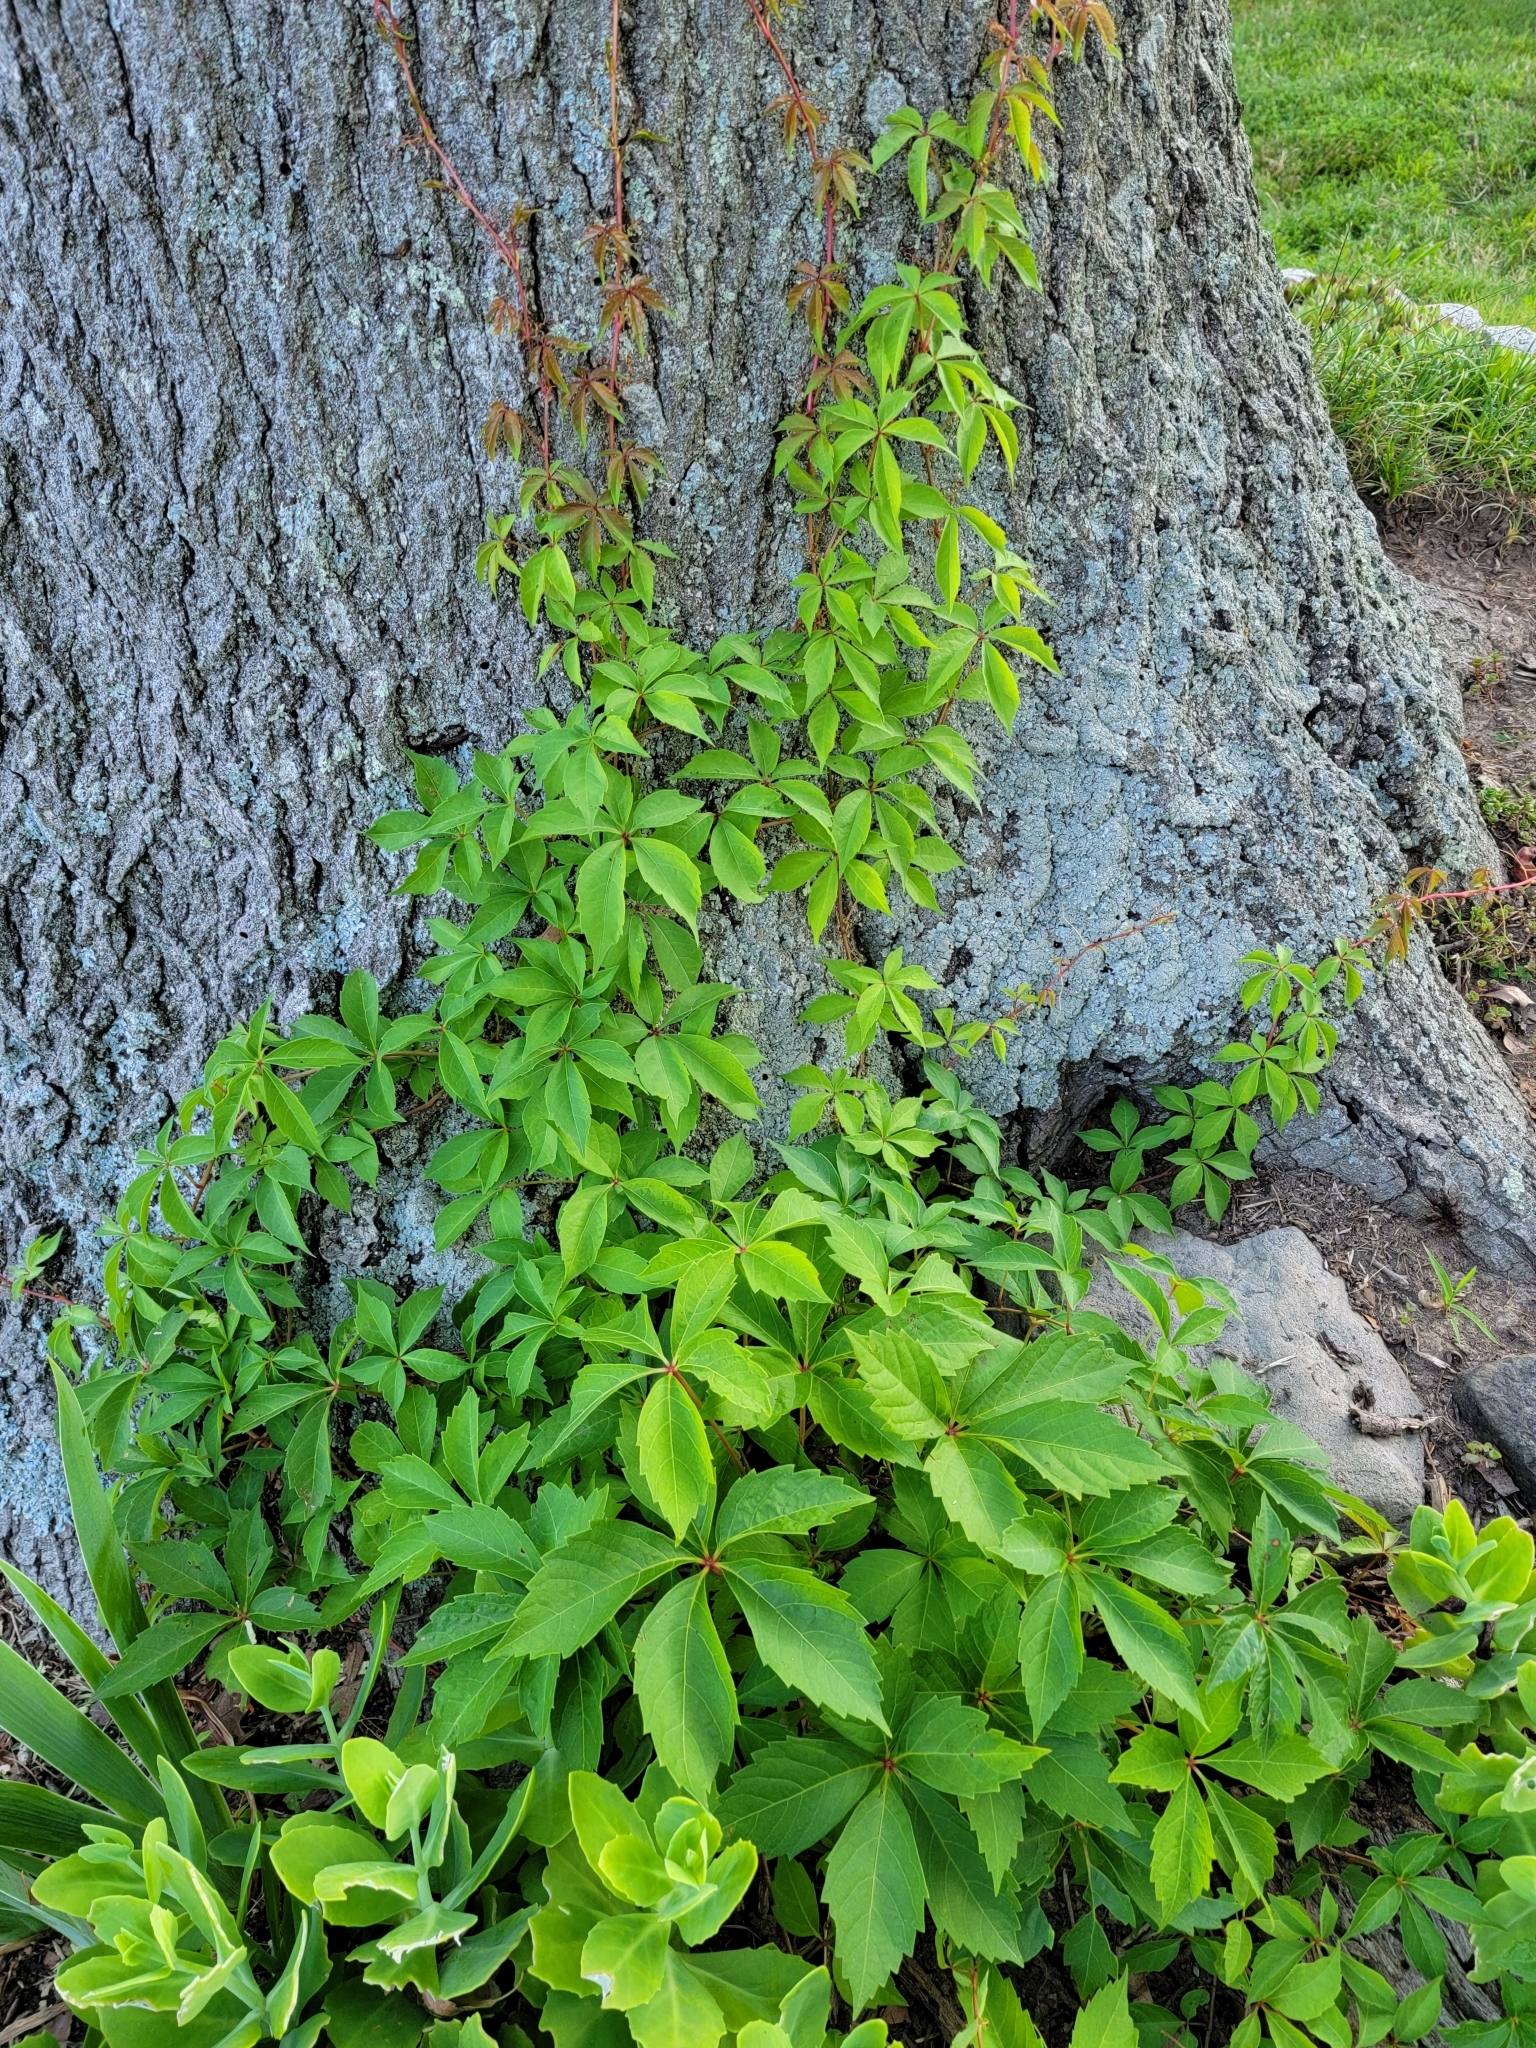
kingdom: Plantae
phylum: Tracheophyta
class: Magnoliopsida
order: Vitales
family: Vitaceae
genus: Parthenocissus
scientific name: Parthenocissus quinquefolia
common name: Virginia-creeper
